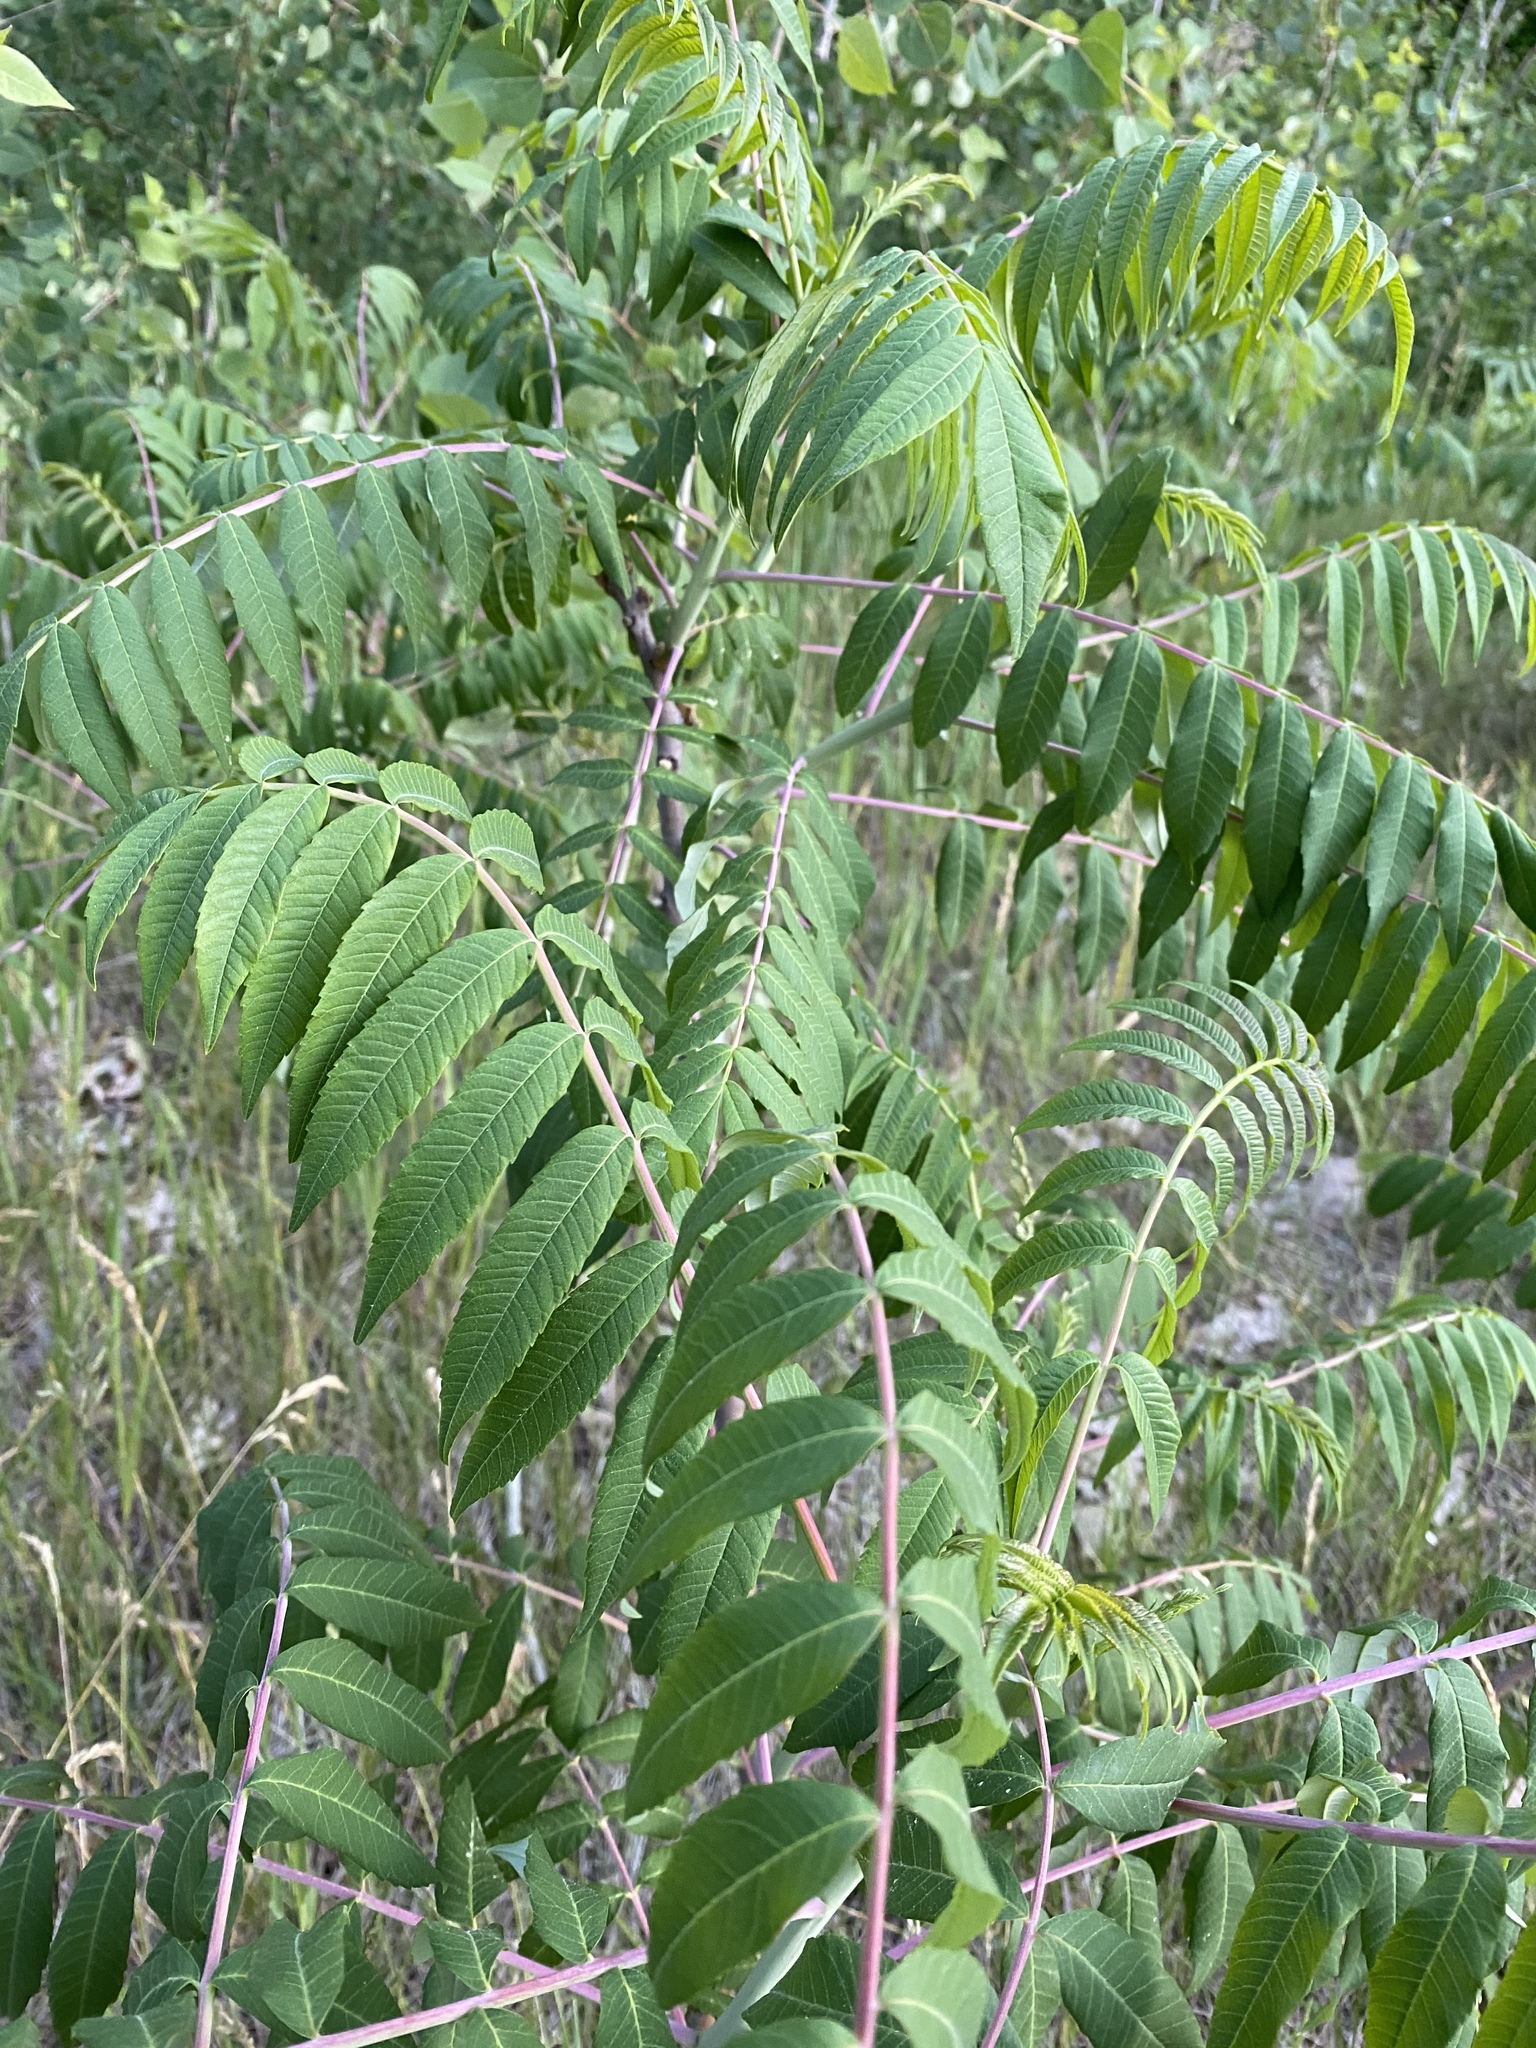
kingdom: Plantae
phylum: Tracheophyta
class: Magnoliopsida
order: Sapindales
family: Anacardiaceae
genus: Rhus
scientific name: Rhus glabra
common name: Scarlet sumac
